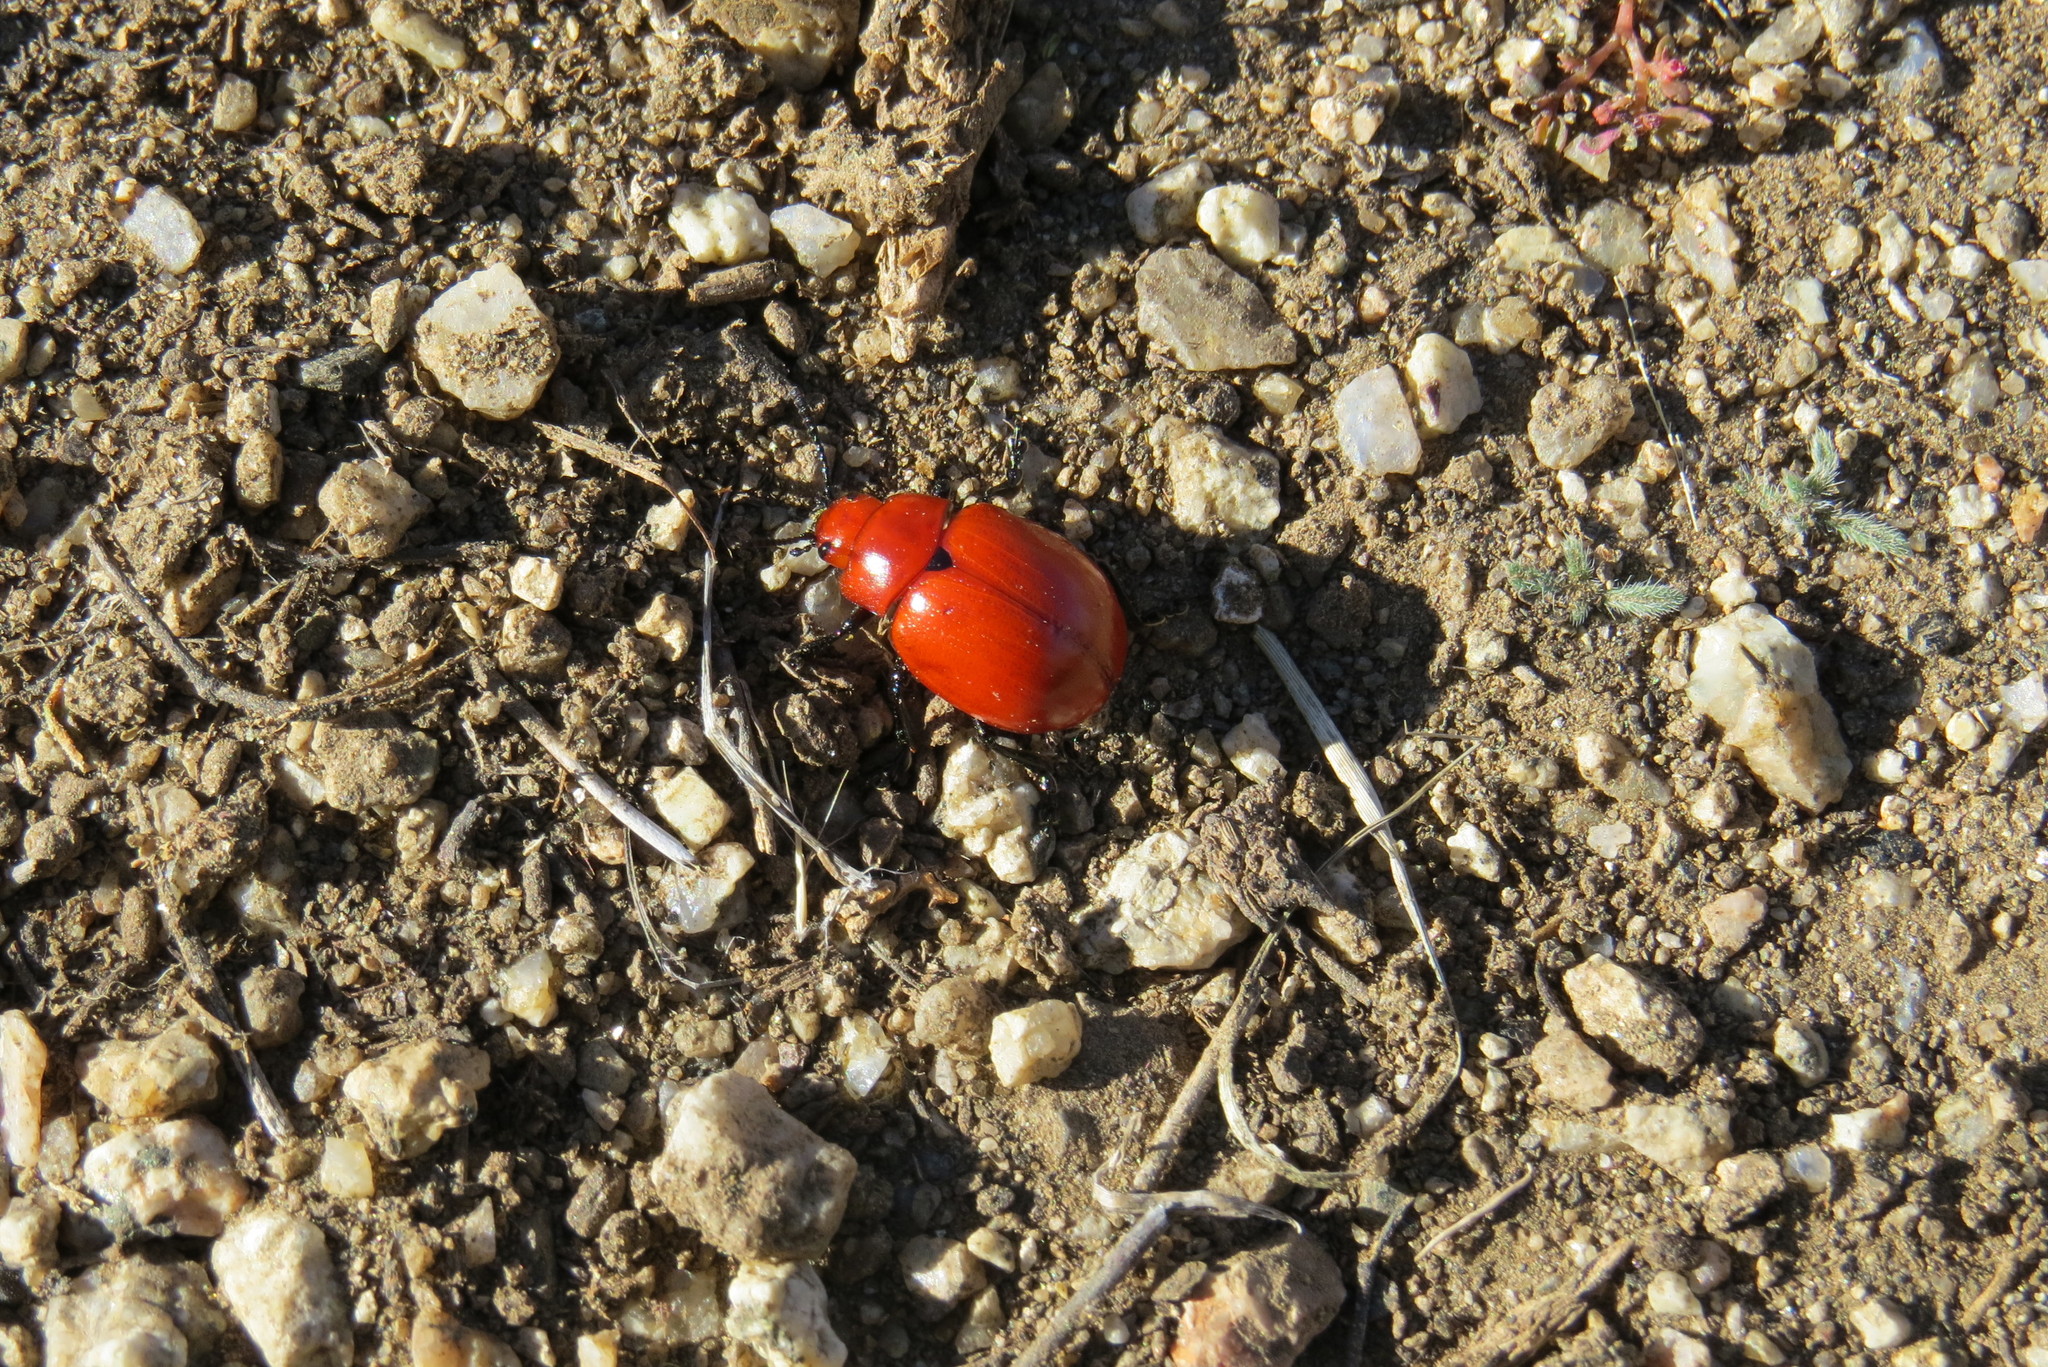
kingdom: Animalia
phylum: Arthropoda
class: Insecta
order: Coleoptera
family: Chrysomelidae
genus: Leptinotarsa
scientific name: Leptinotarsa rubiginosa
